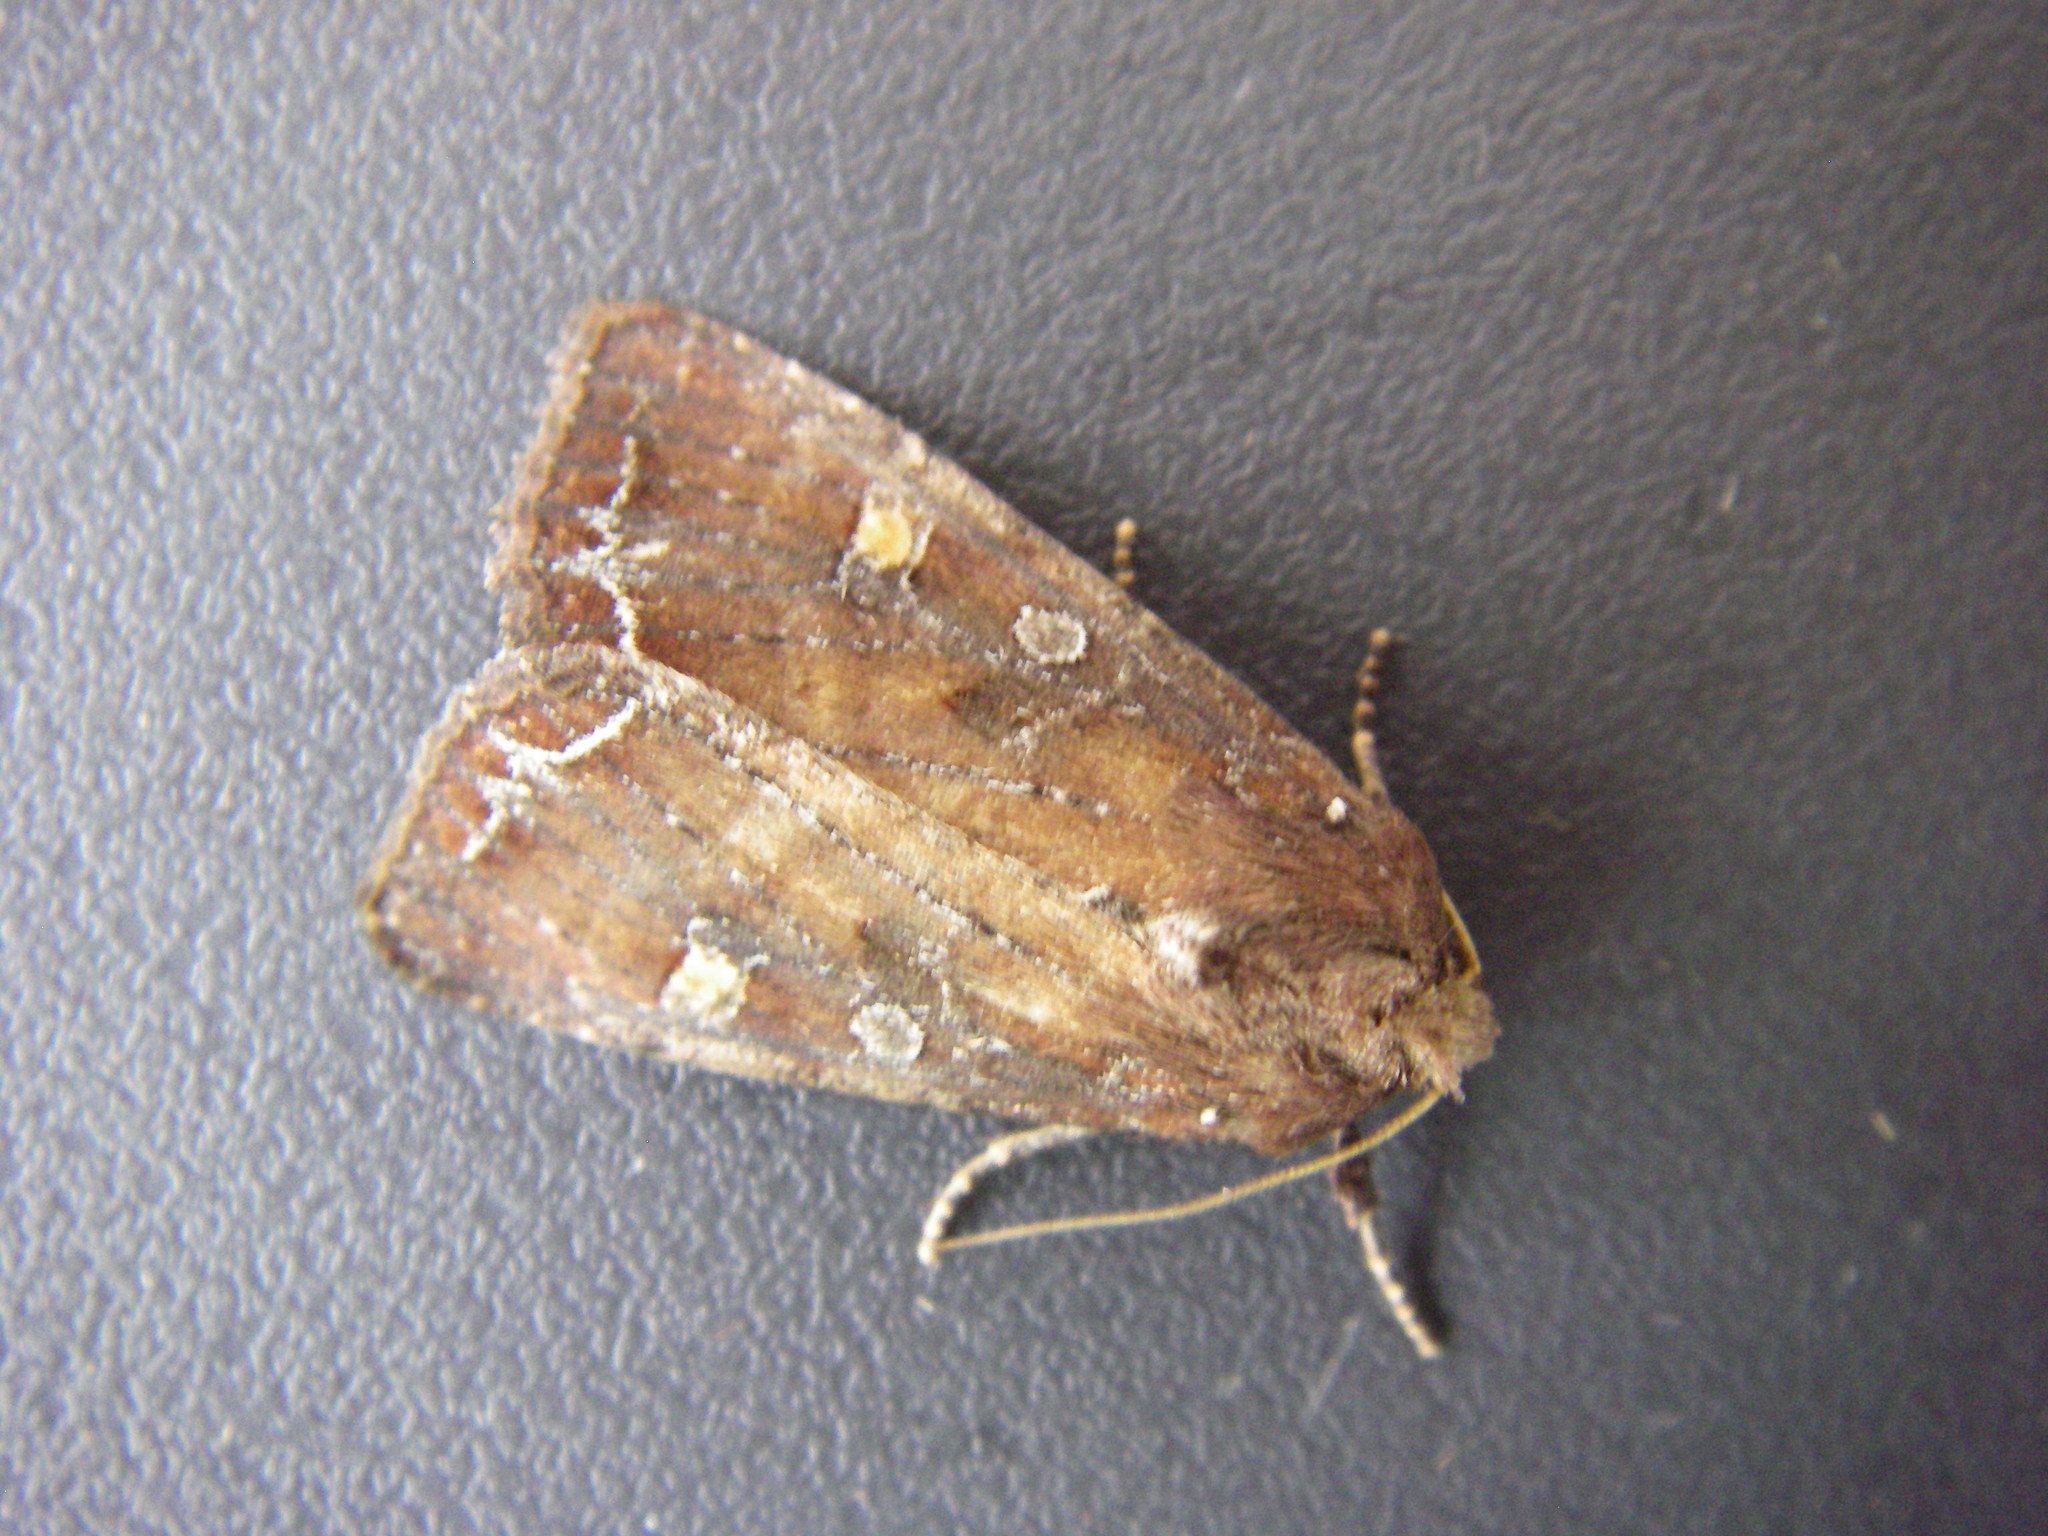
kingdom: Animalia
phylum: Arthropoda
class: Insecta
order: Lepidoptera
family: Noctuidae
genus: Lacanobia
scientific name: Lacanobia oleracea
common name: Bright-line brown-eye
